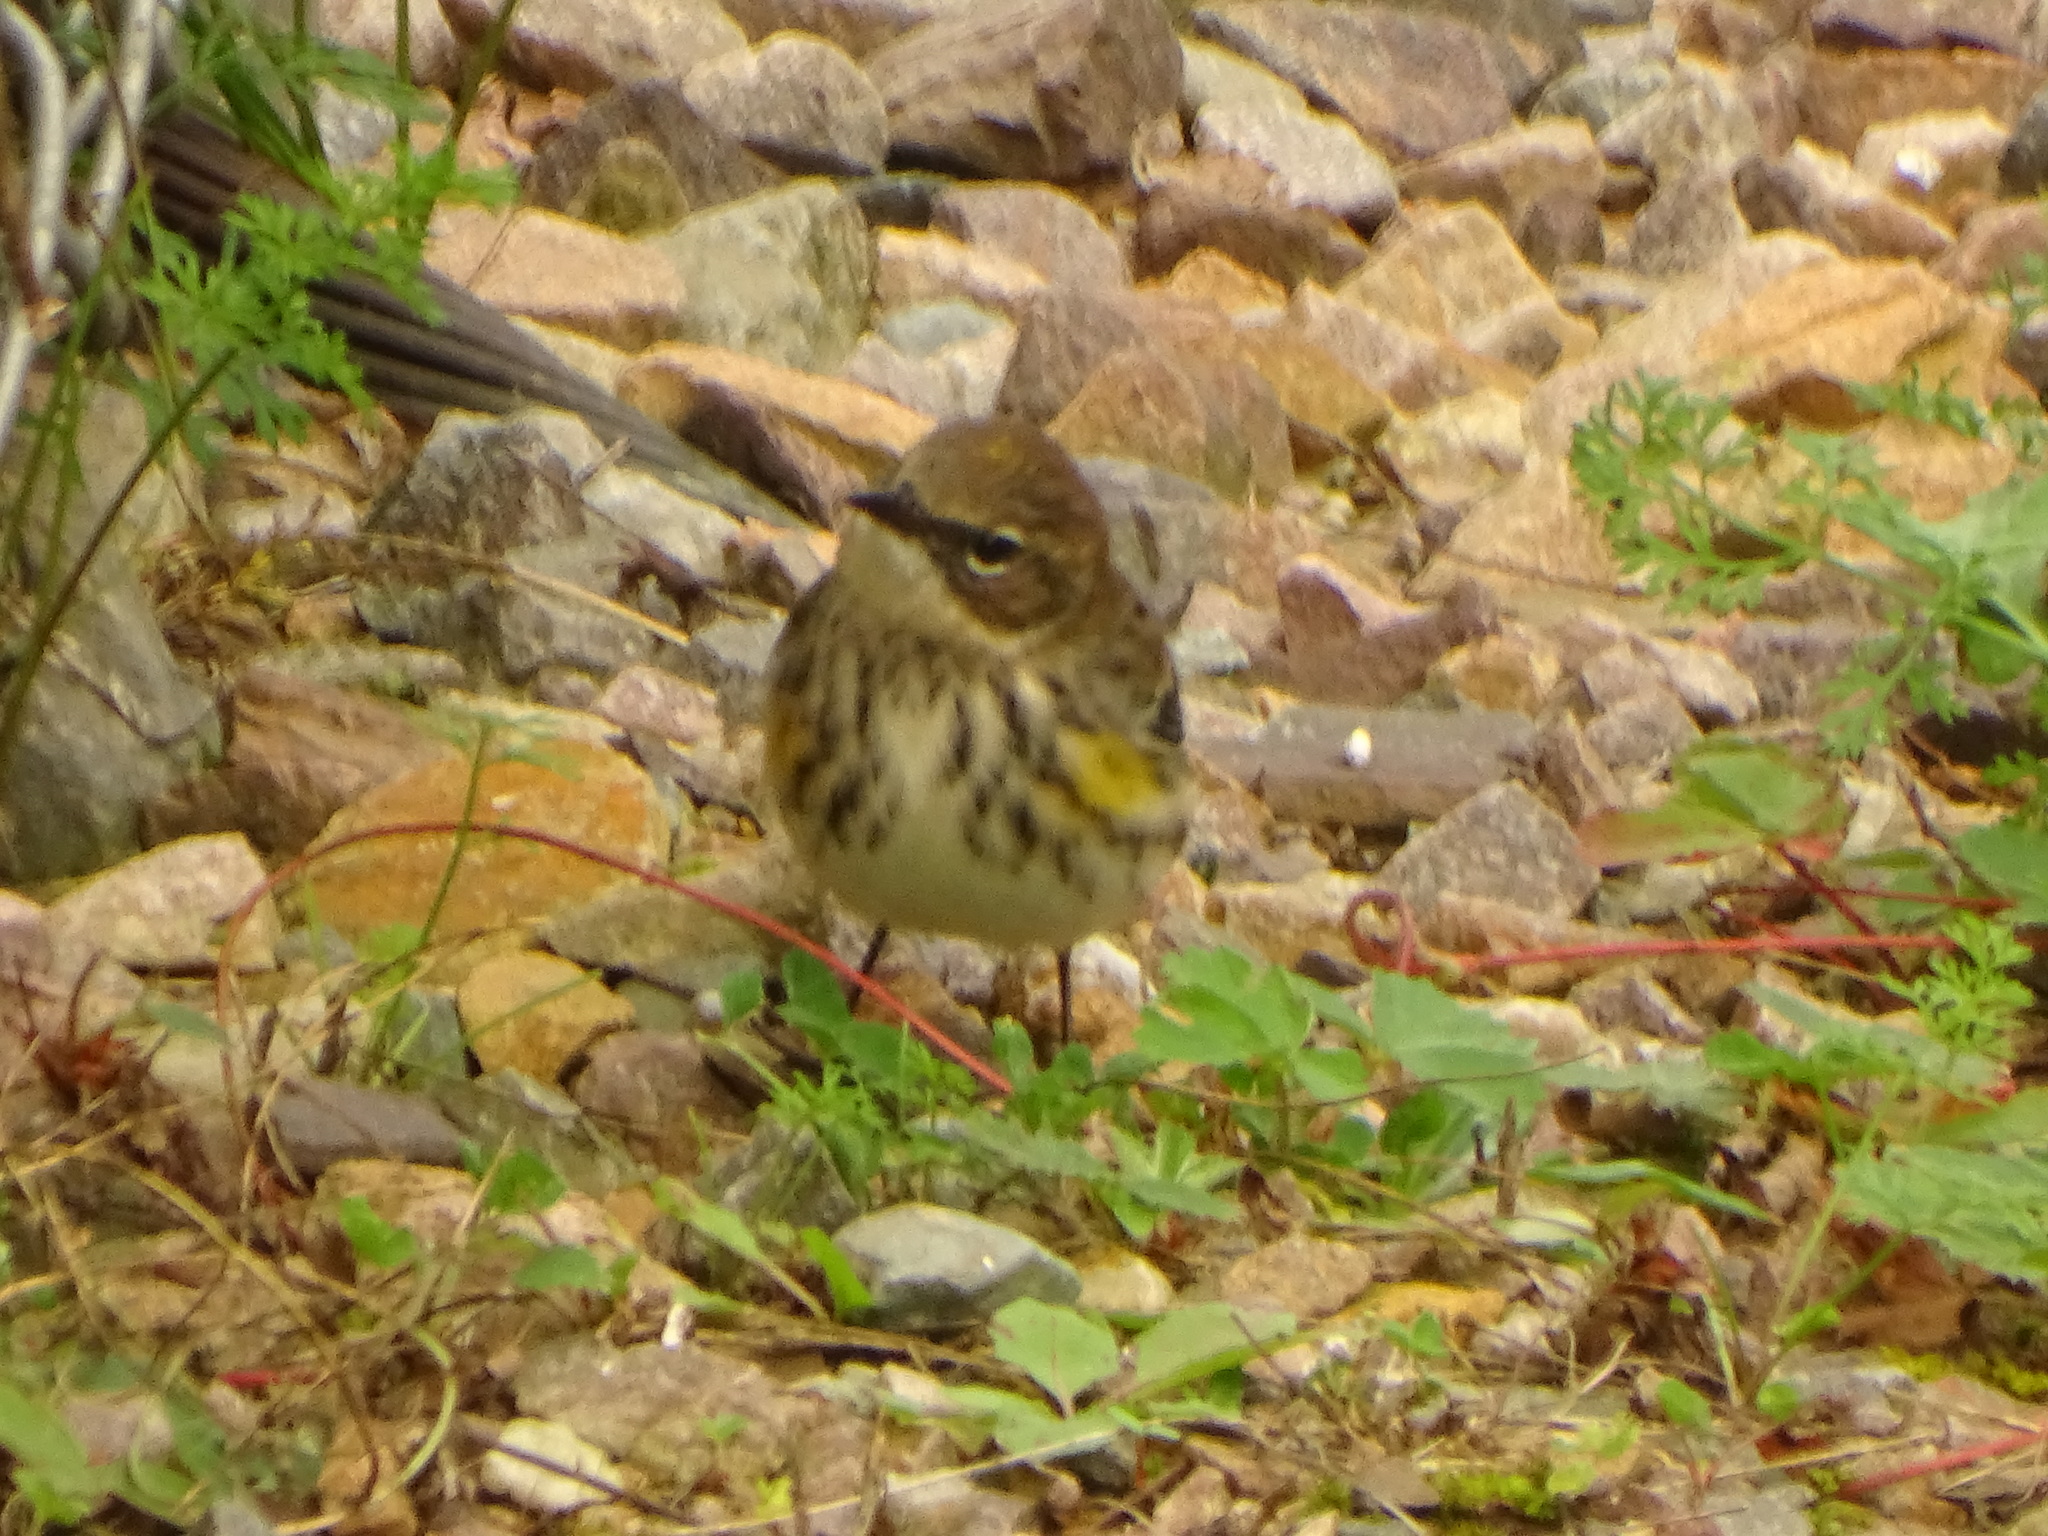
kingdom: Animalia
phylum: Chordata
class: Aves
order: Passeriformes
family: Parulidae
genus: Setophaga
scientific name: Setophaga coronata
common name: Myrtle warbler
